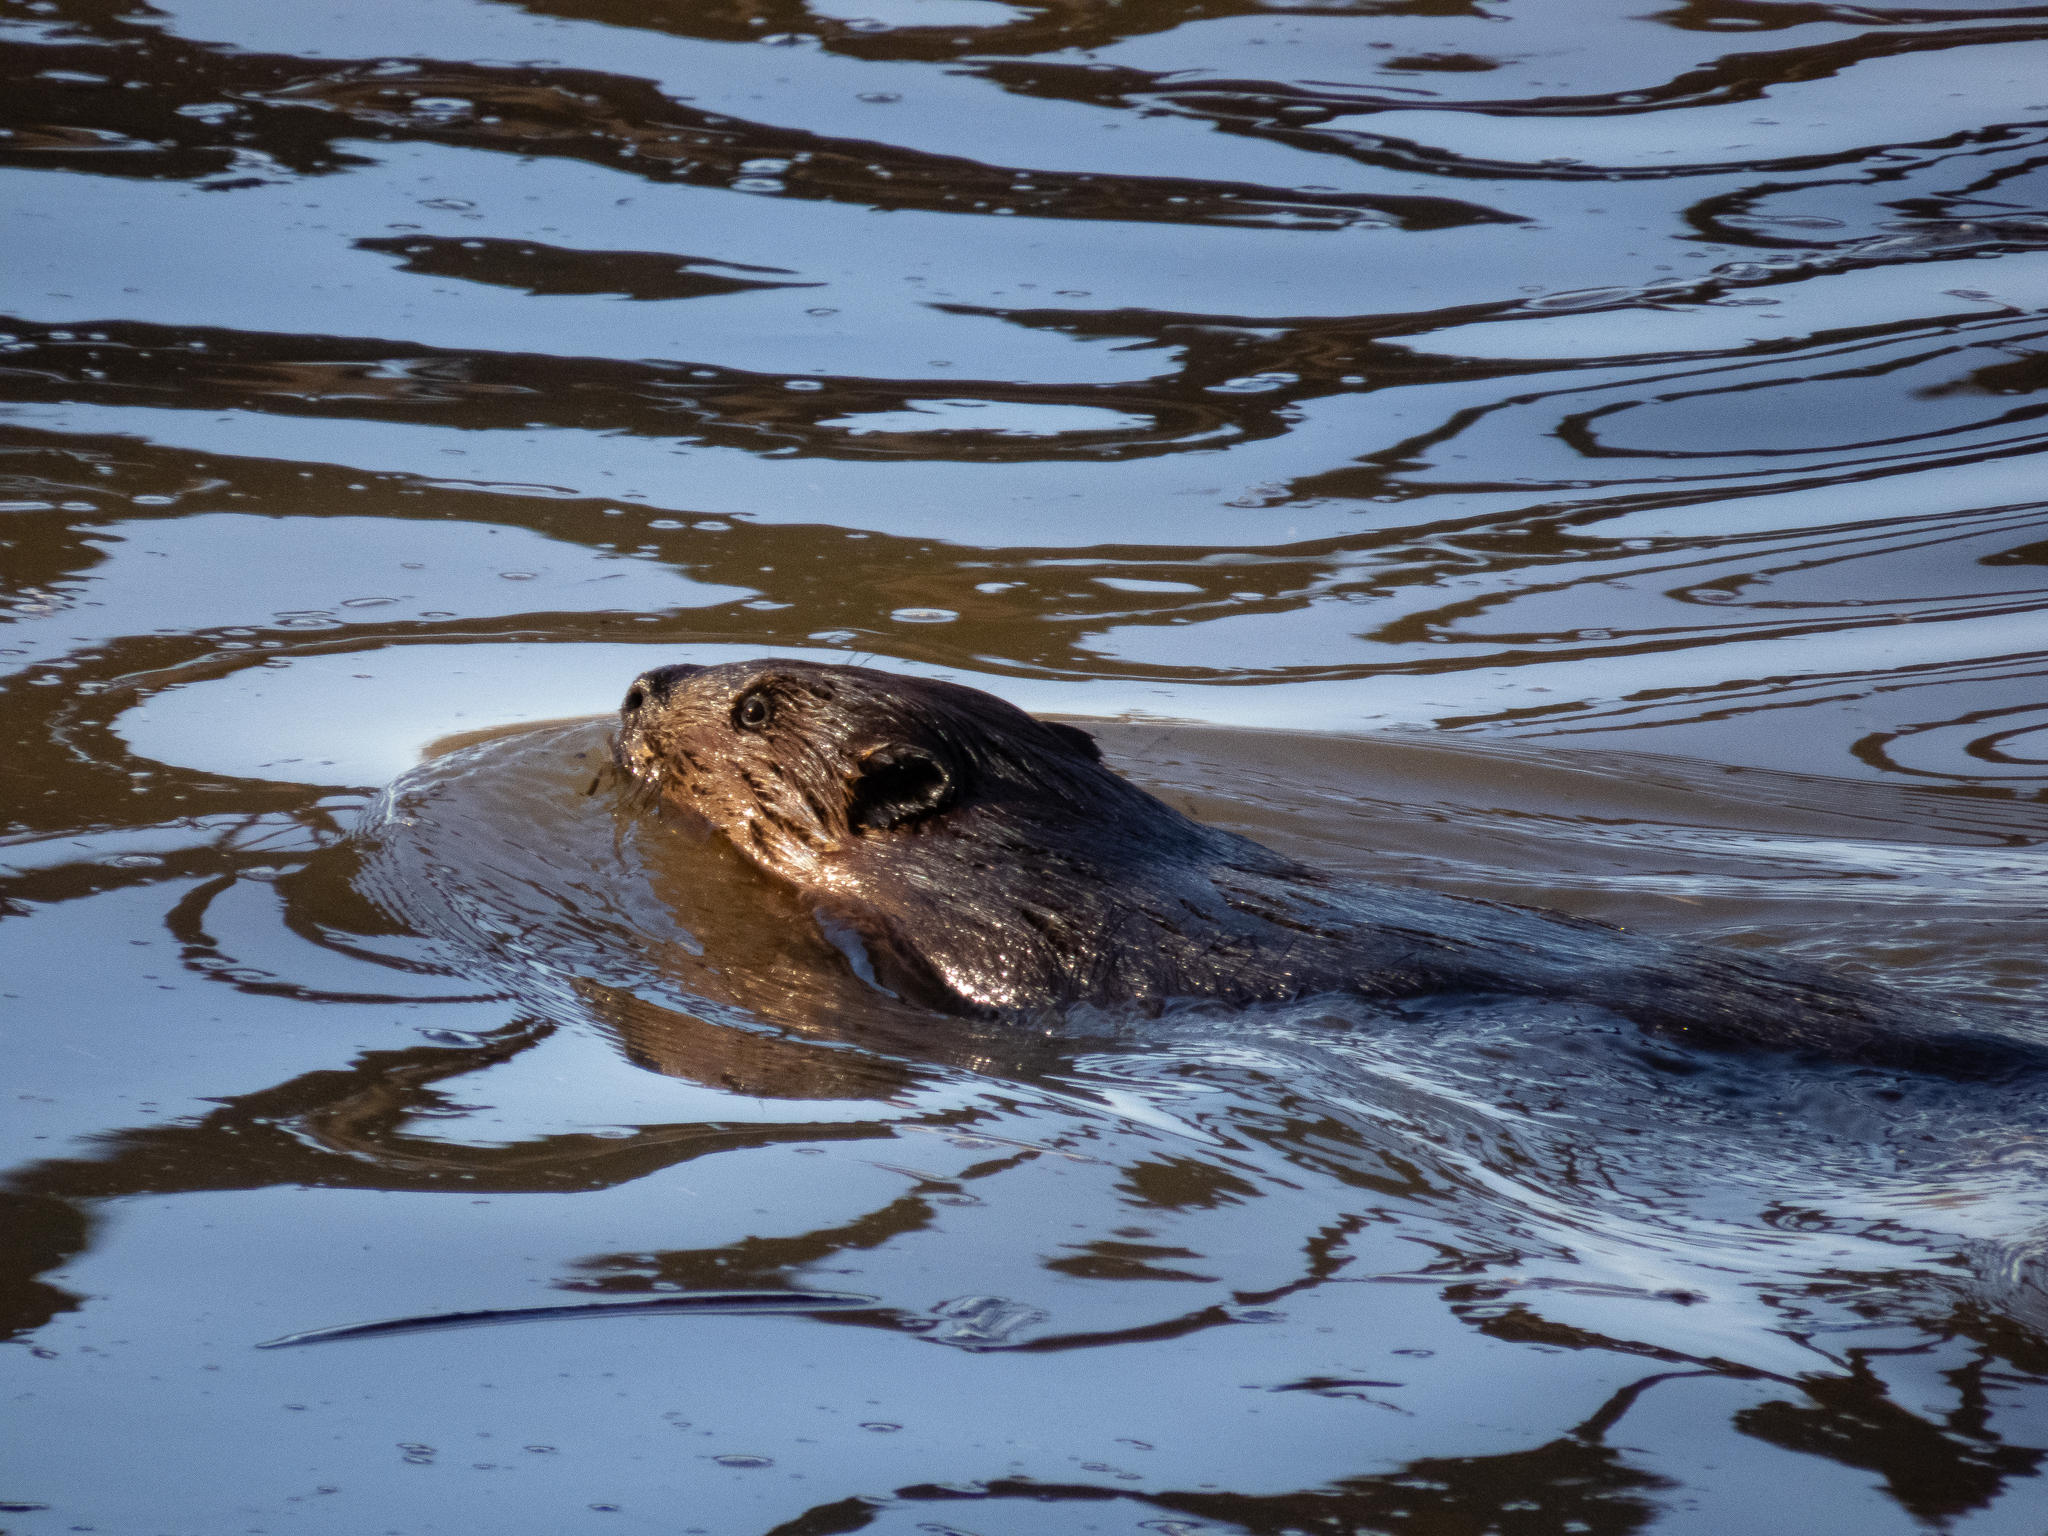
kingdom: Animalia
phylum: Chordata
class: Mammalia
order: Rodentia
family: Castoridae
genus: Castor
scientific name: Castor canadensis
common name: American beaver
